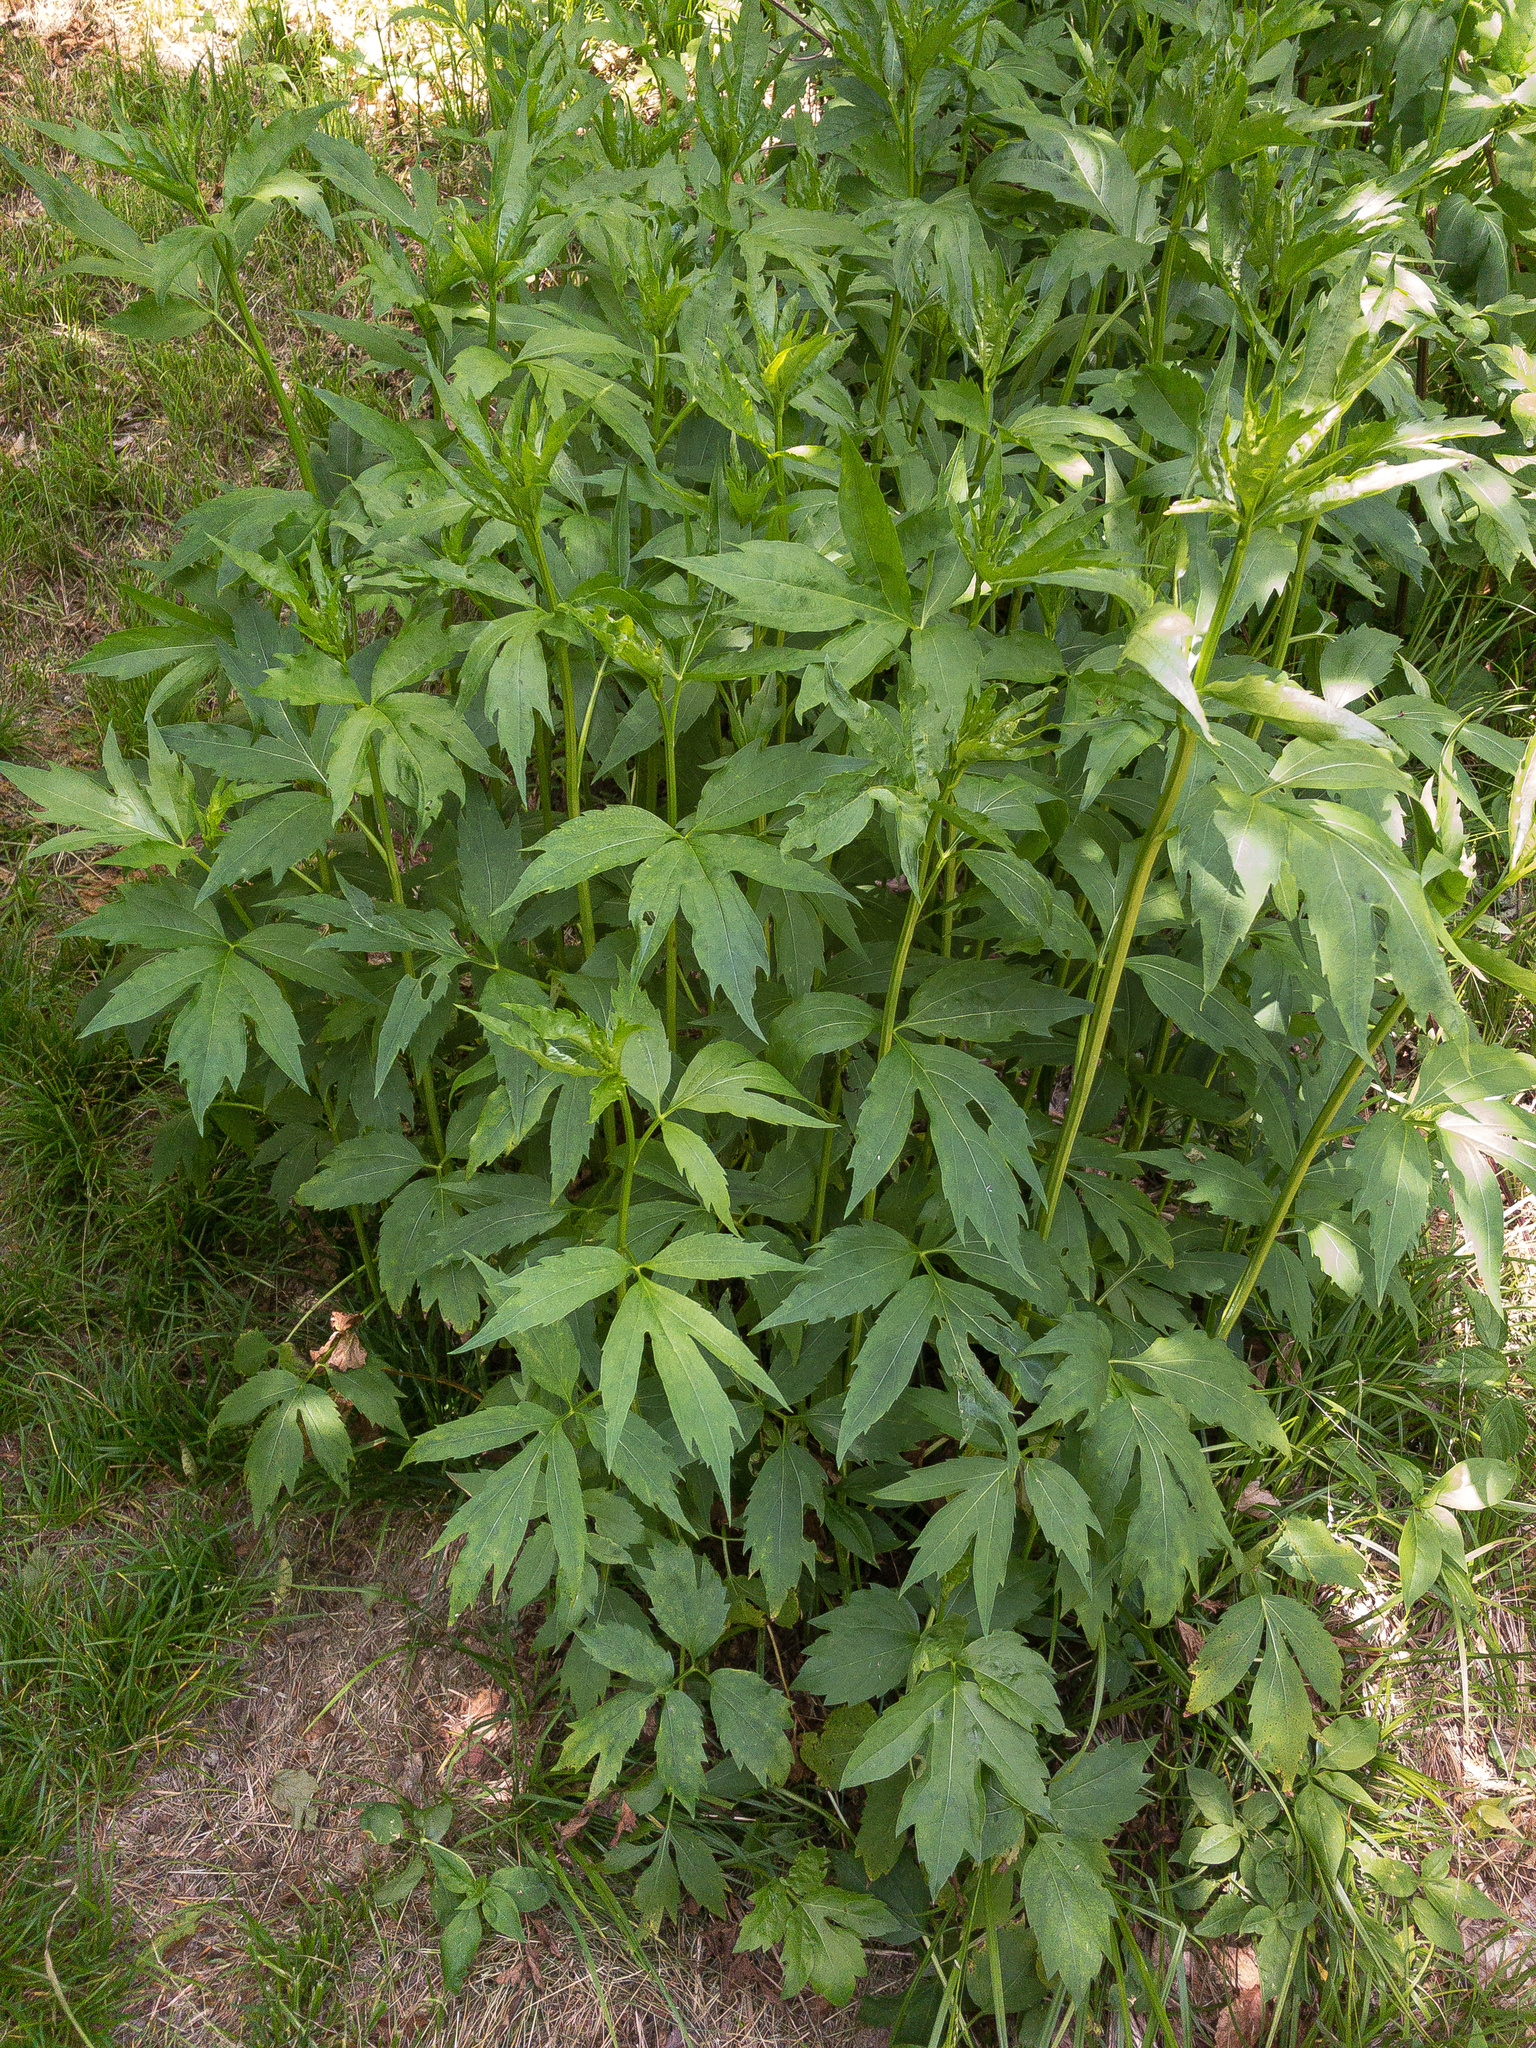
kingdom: Plantae
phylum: Tracheophyta
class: Magnoliopsida
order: Asterales
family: Asteraceae
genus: Rudbeckia
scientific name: Rudbeckia laciniata
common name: Coneflower
